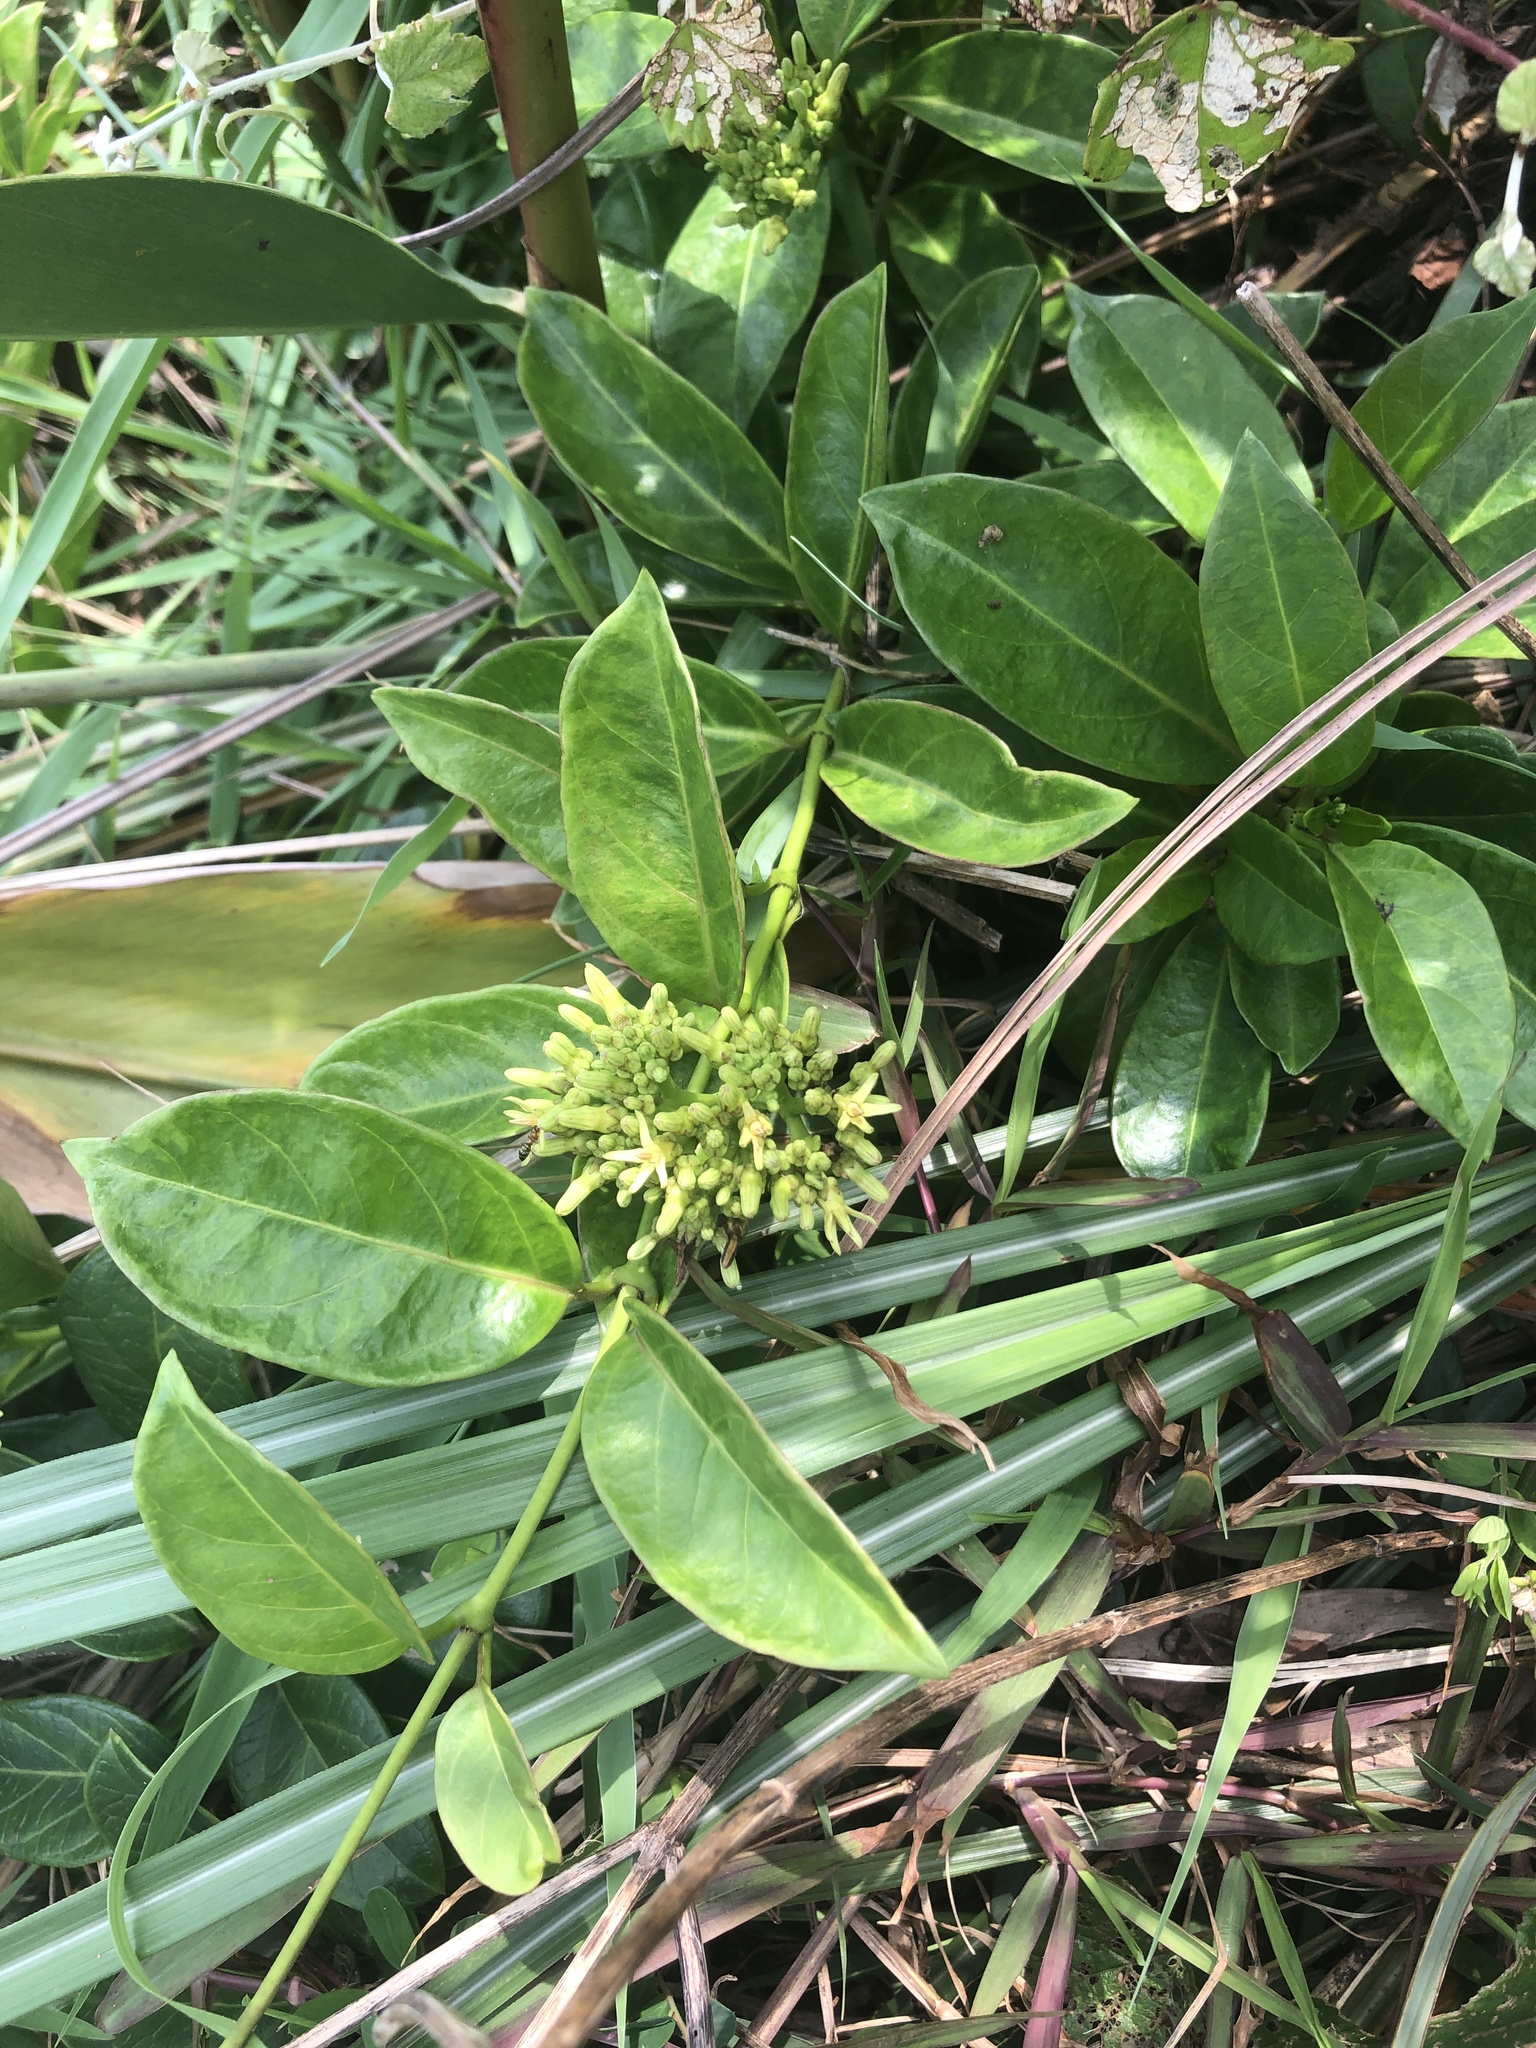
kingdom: Plantae
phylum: Tracheophyta
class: Magnoliopsida
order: Gentianales
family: Apocynaceae
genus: Parsonsia
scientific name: Parsonsia alboflavescens
